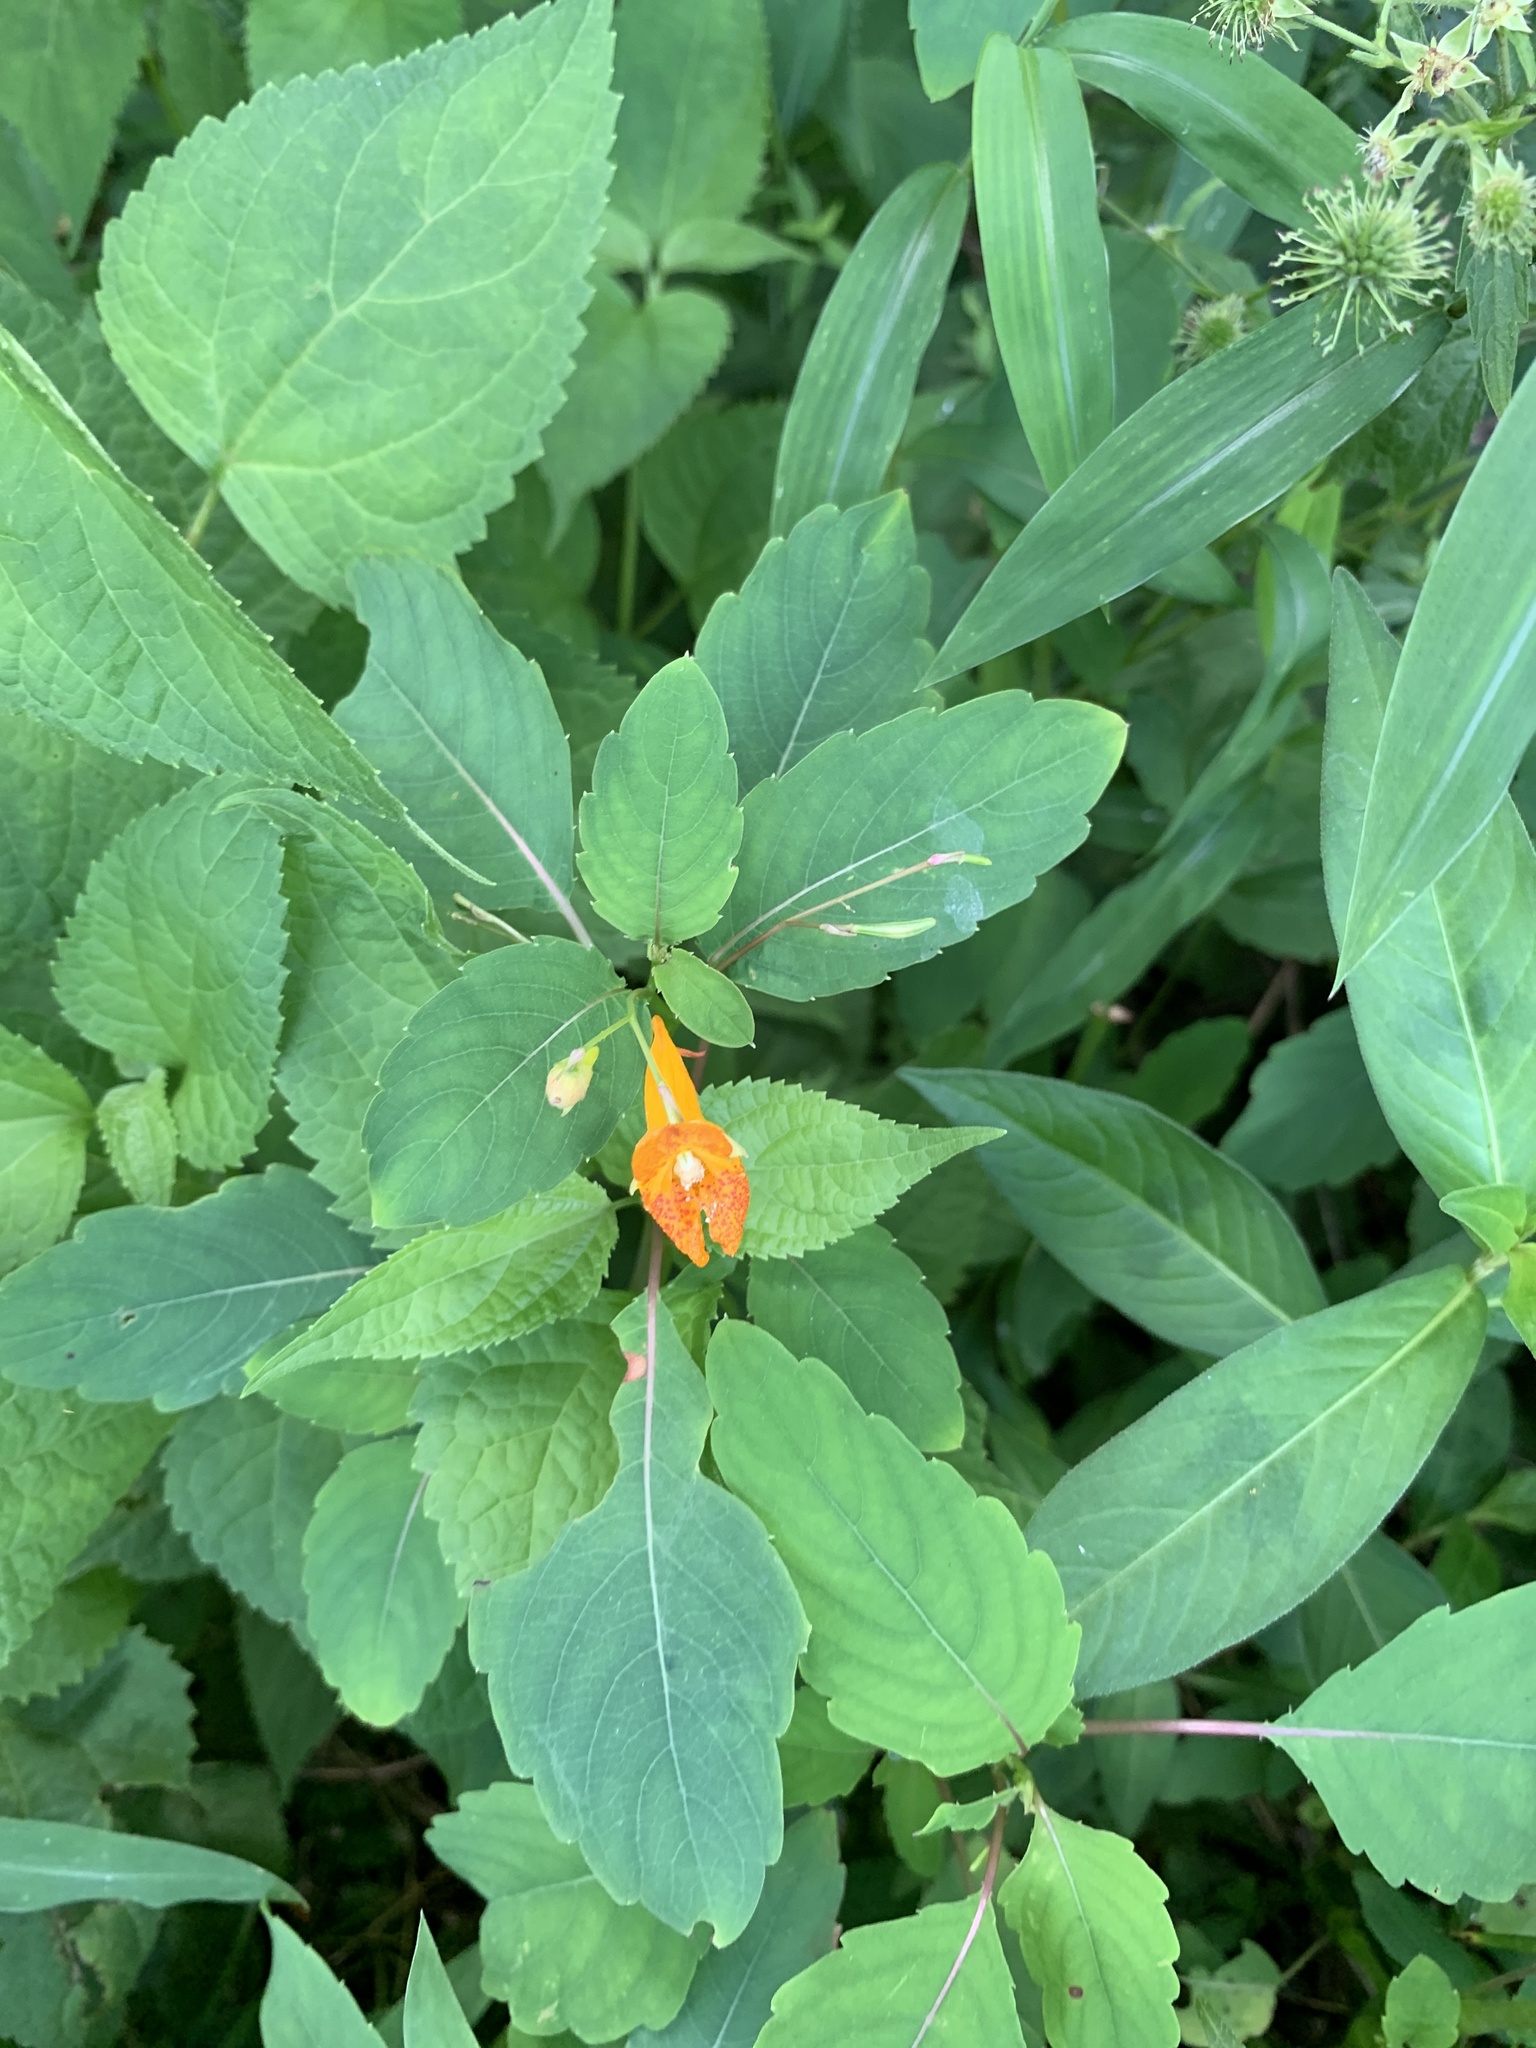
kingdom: Plantae
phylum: Tracheophyta
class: Magnoliopsida
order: Ericales
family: Balsaminaceae
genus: Impatiens
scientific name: Impatiens capensis
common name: Orange balsam
